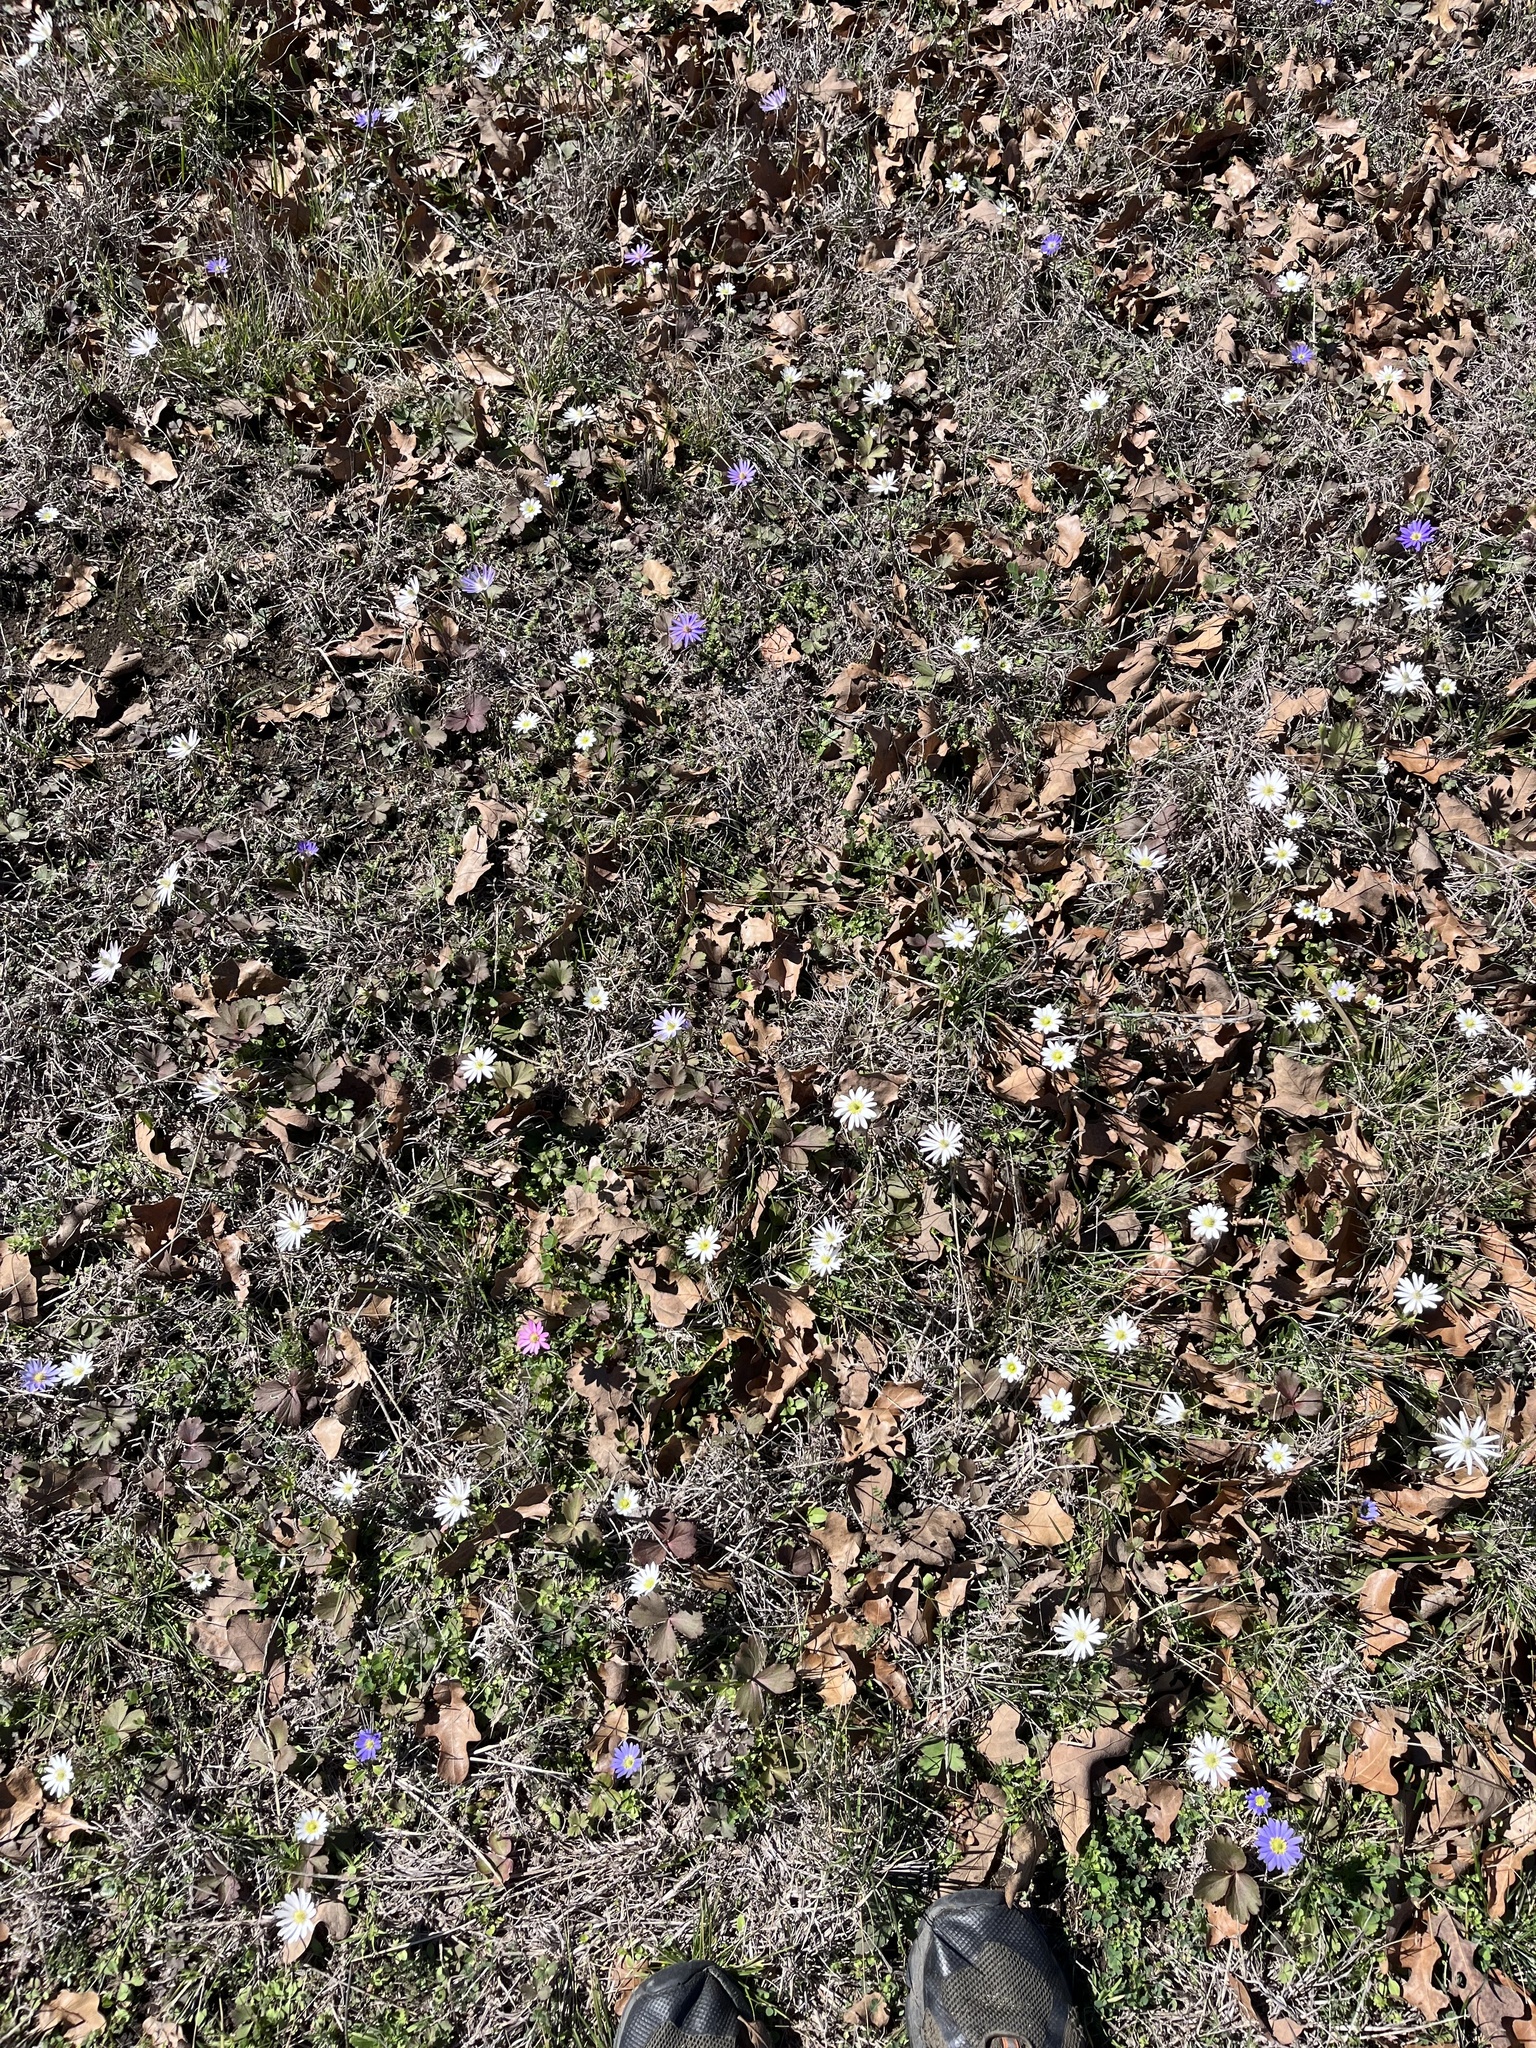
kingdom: Plantae
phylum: Tracheophyta
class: Magnoliopsida
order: Ranunculales
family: Ranunculaceae
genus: Anemone
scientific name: Anemone berlandieri
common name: Ten-petal anemone
